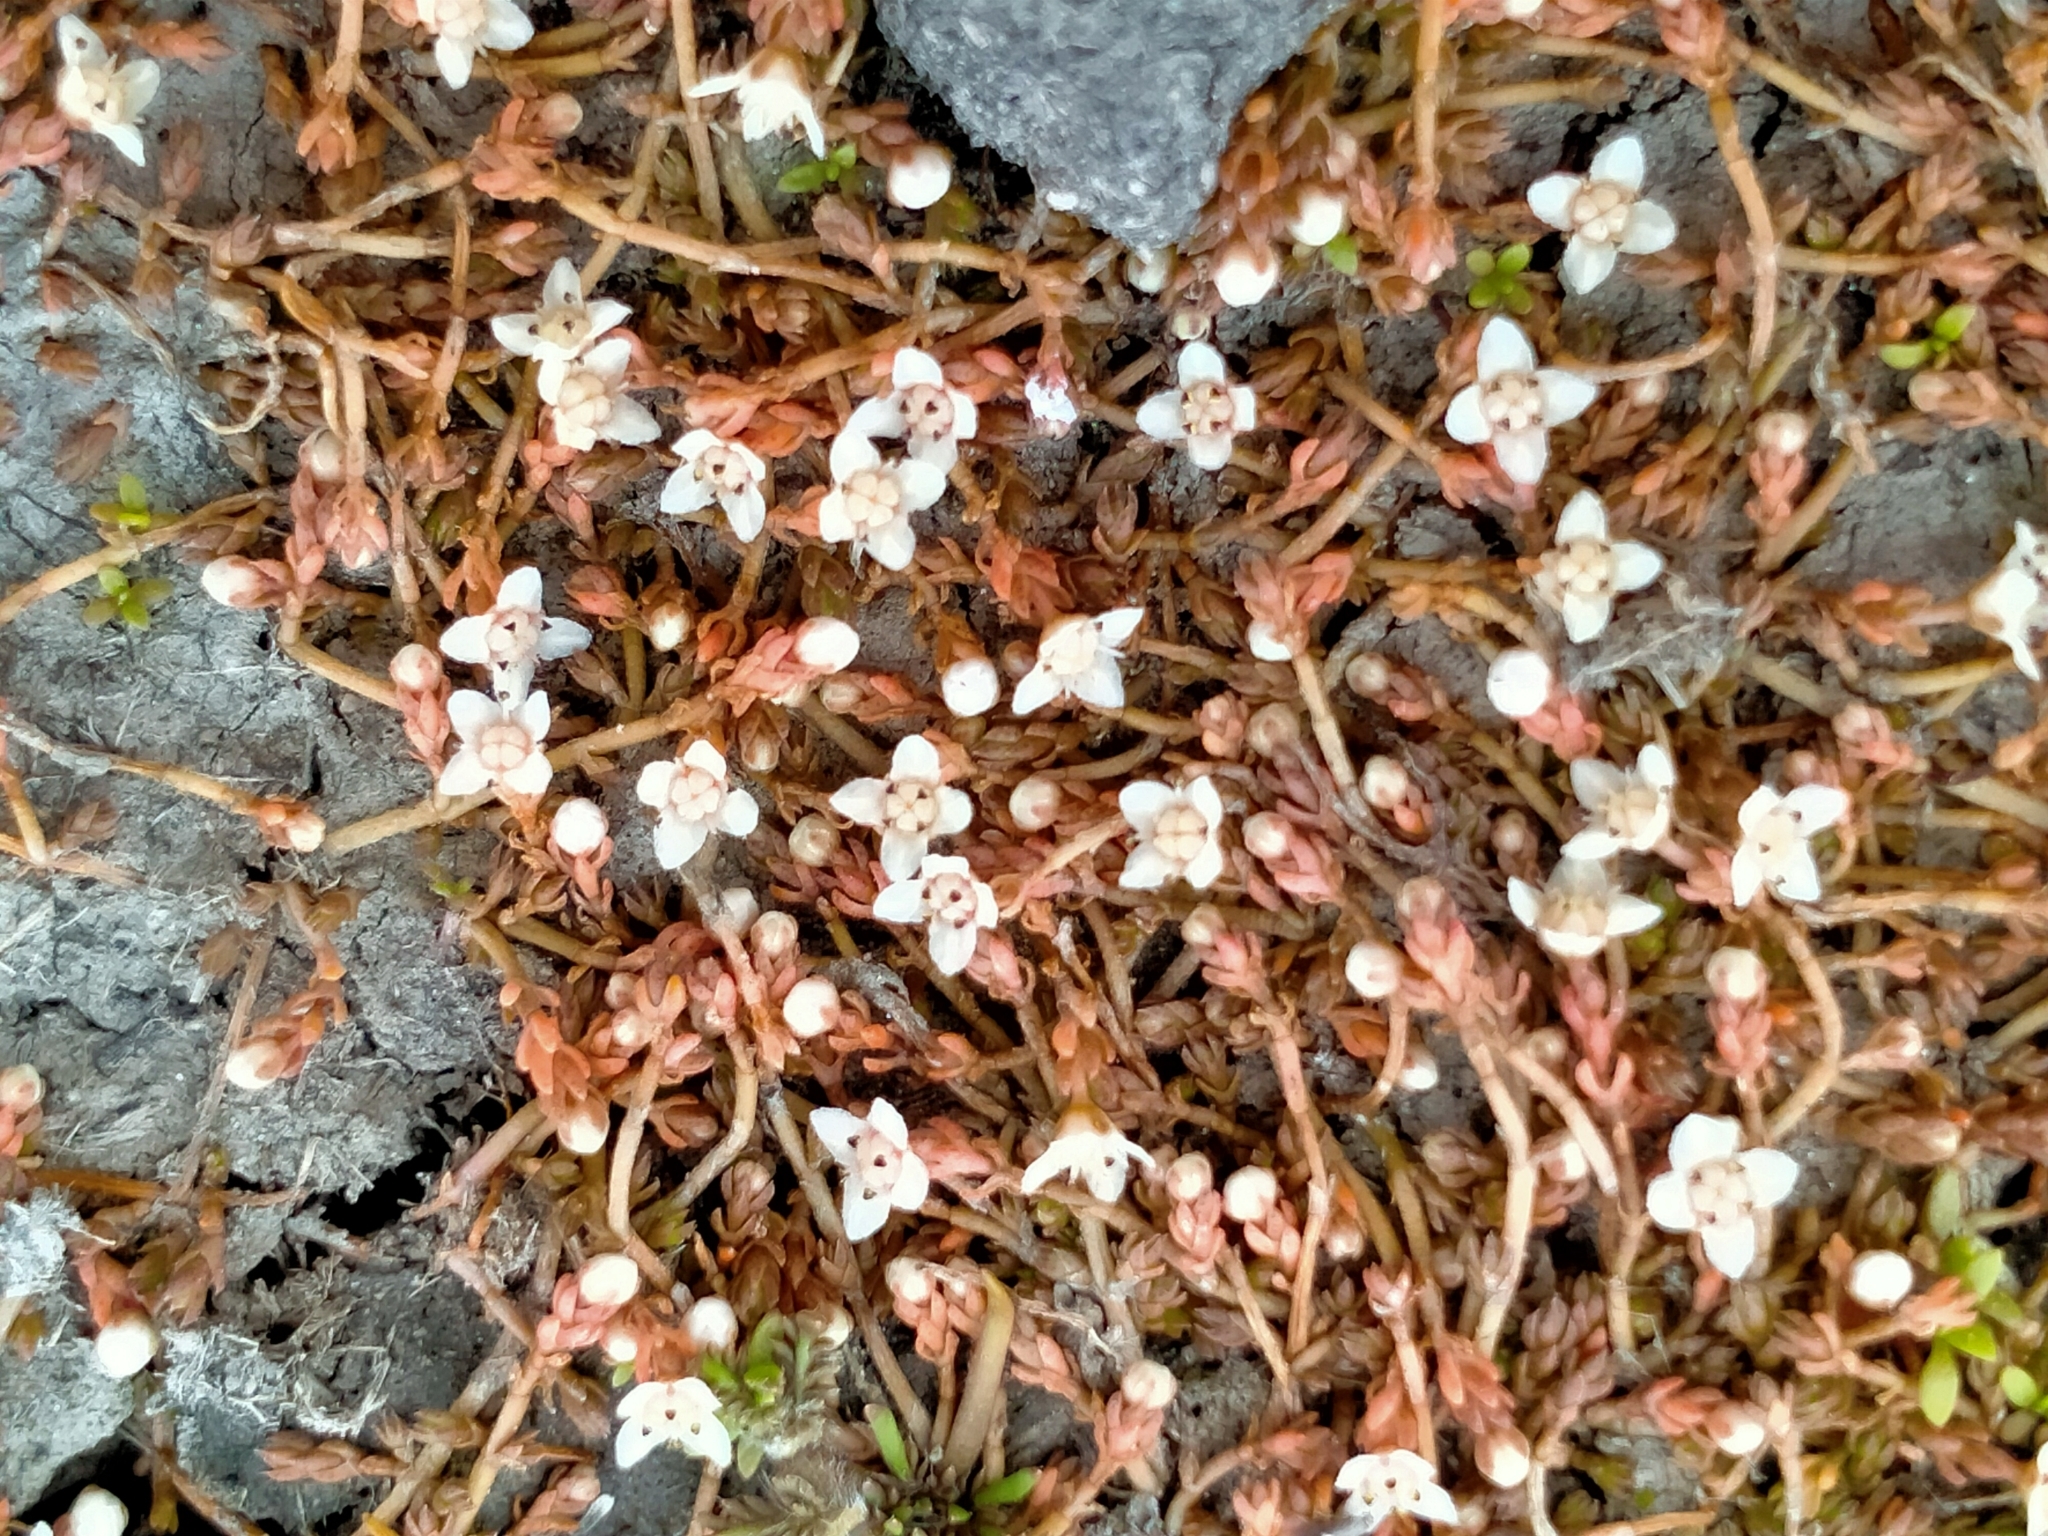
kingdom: Plantae
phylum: Tracheophyta
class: Magnoliopsida
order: Saxifragales
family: Crassulaceae
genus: Crassula
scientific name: Crassula sinclairii
